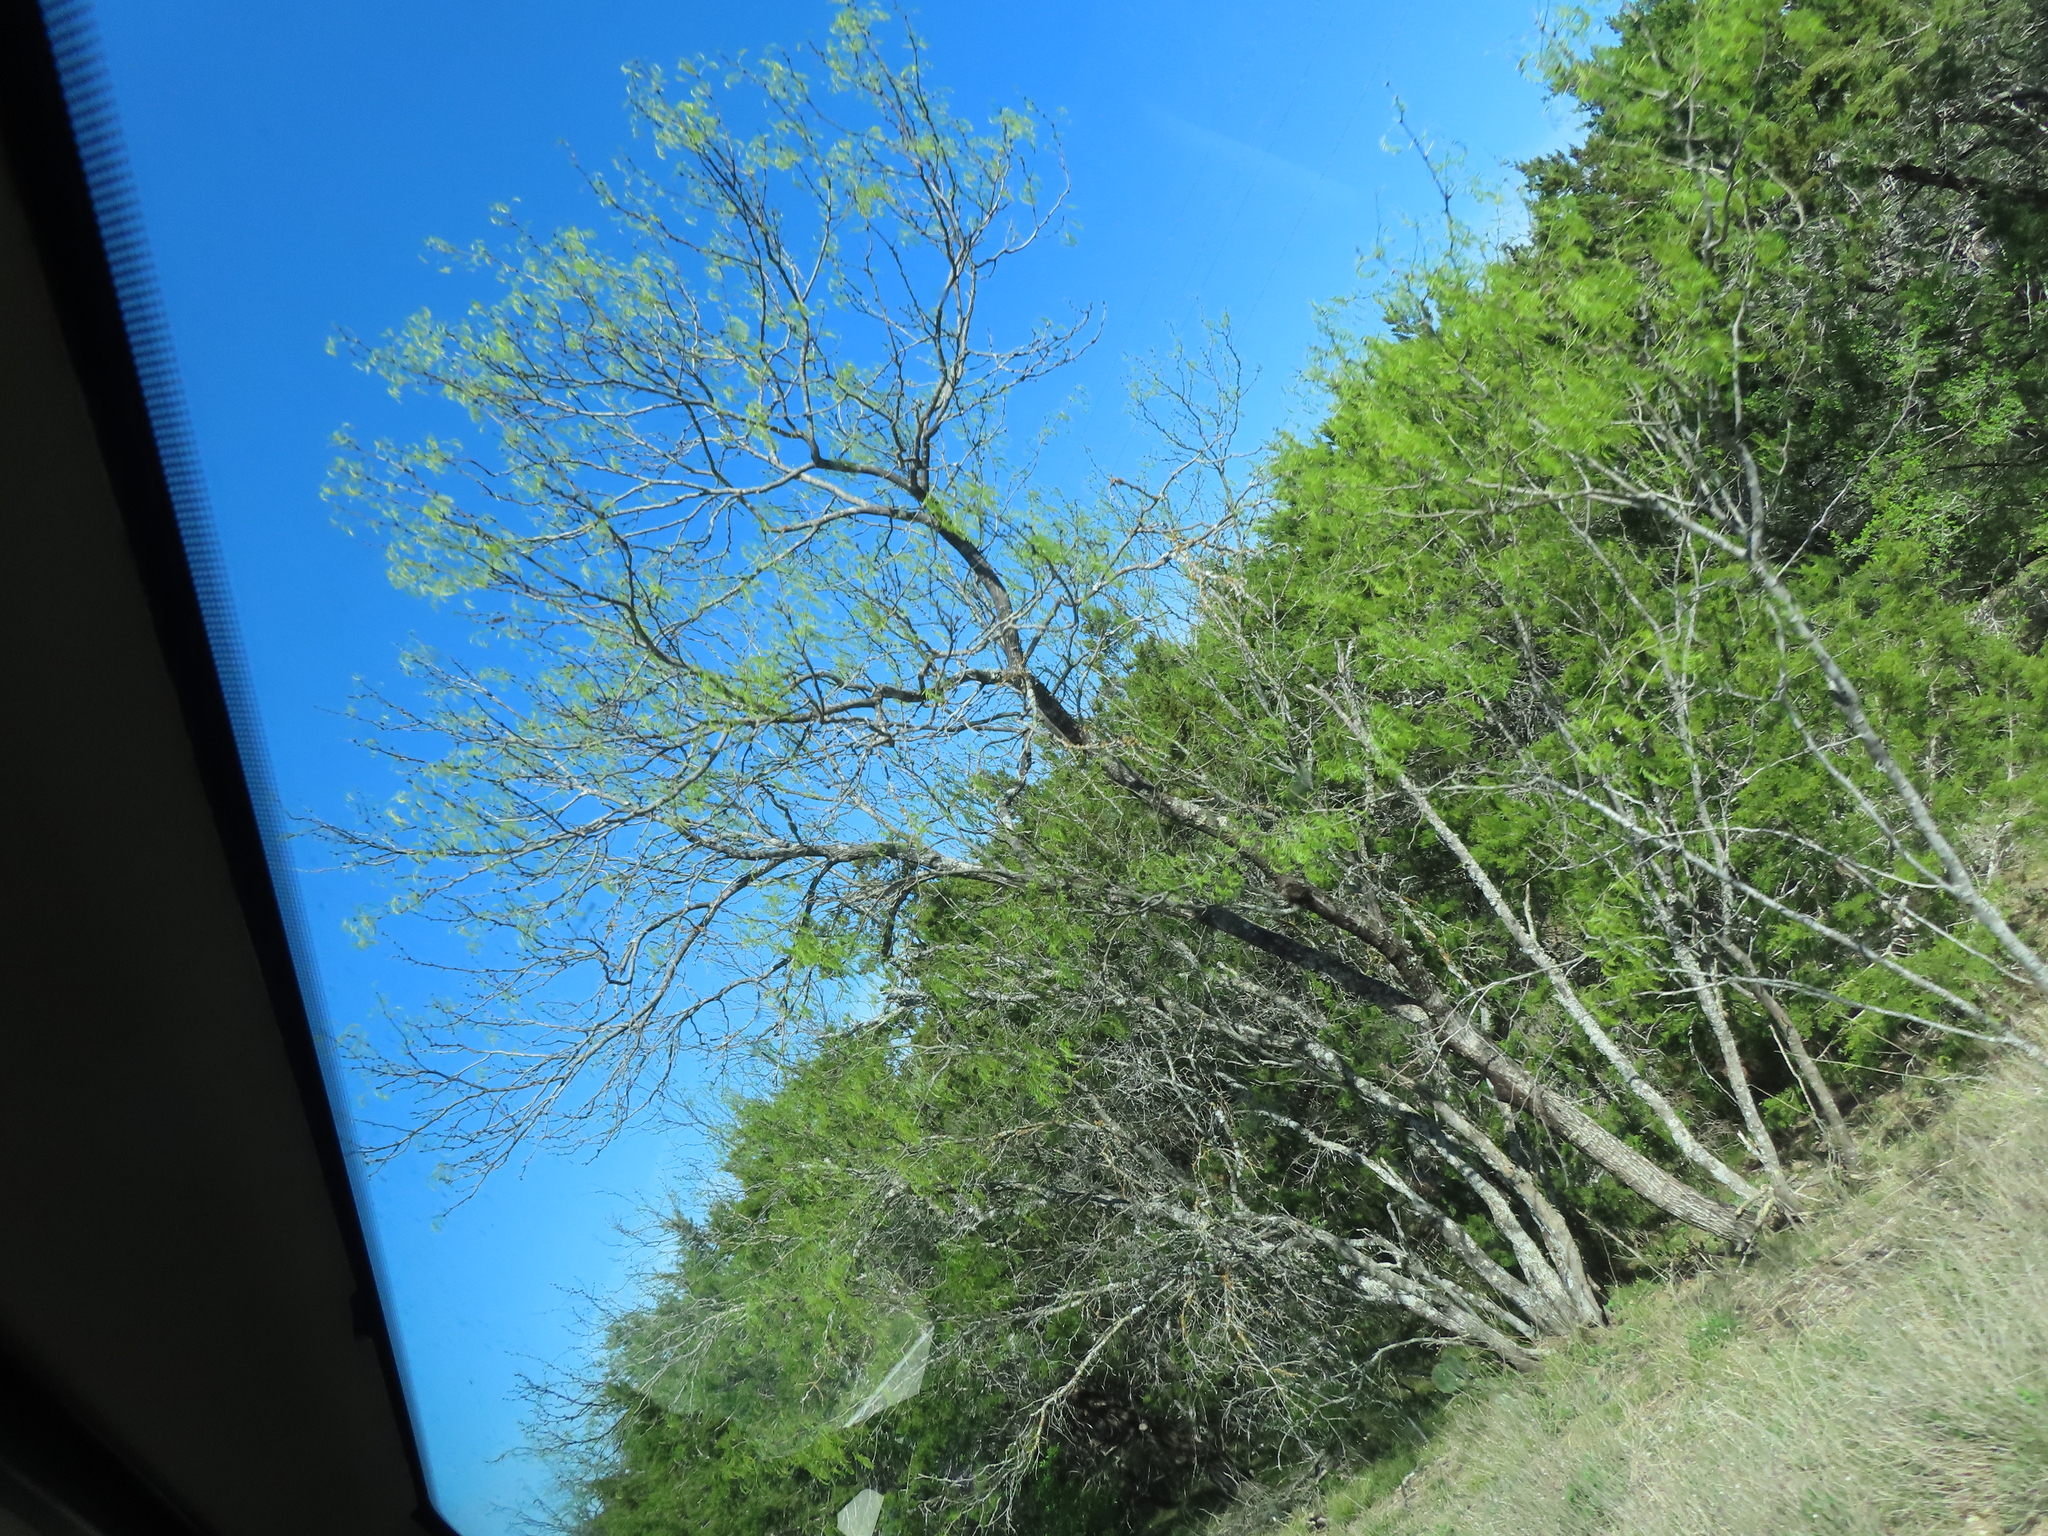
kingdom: Plantae
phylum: Tracheophyta
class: Magnoliopsida
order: Fabales
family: Fabaceae
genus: Prosopis
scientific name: Prosopis glandulosa
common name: Honey mesquite
